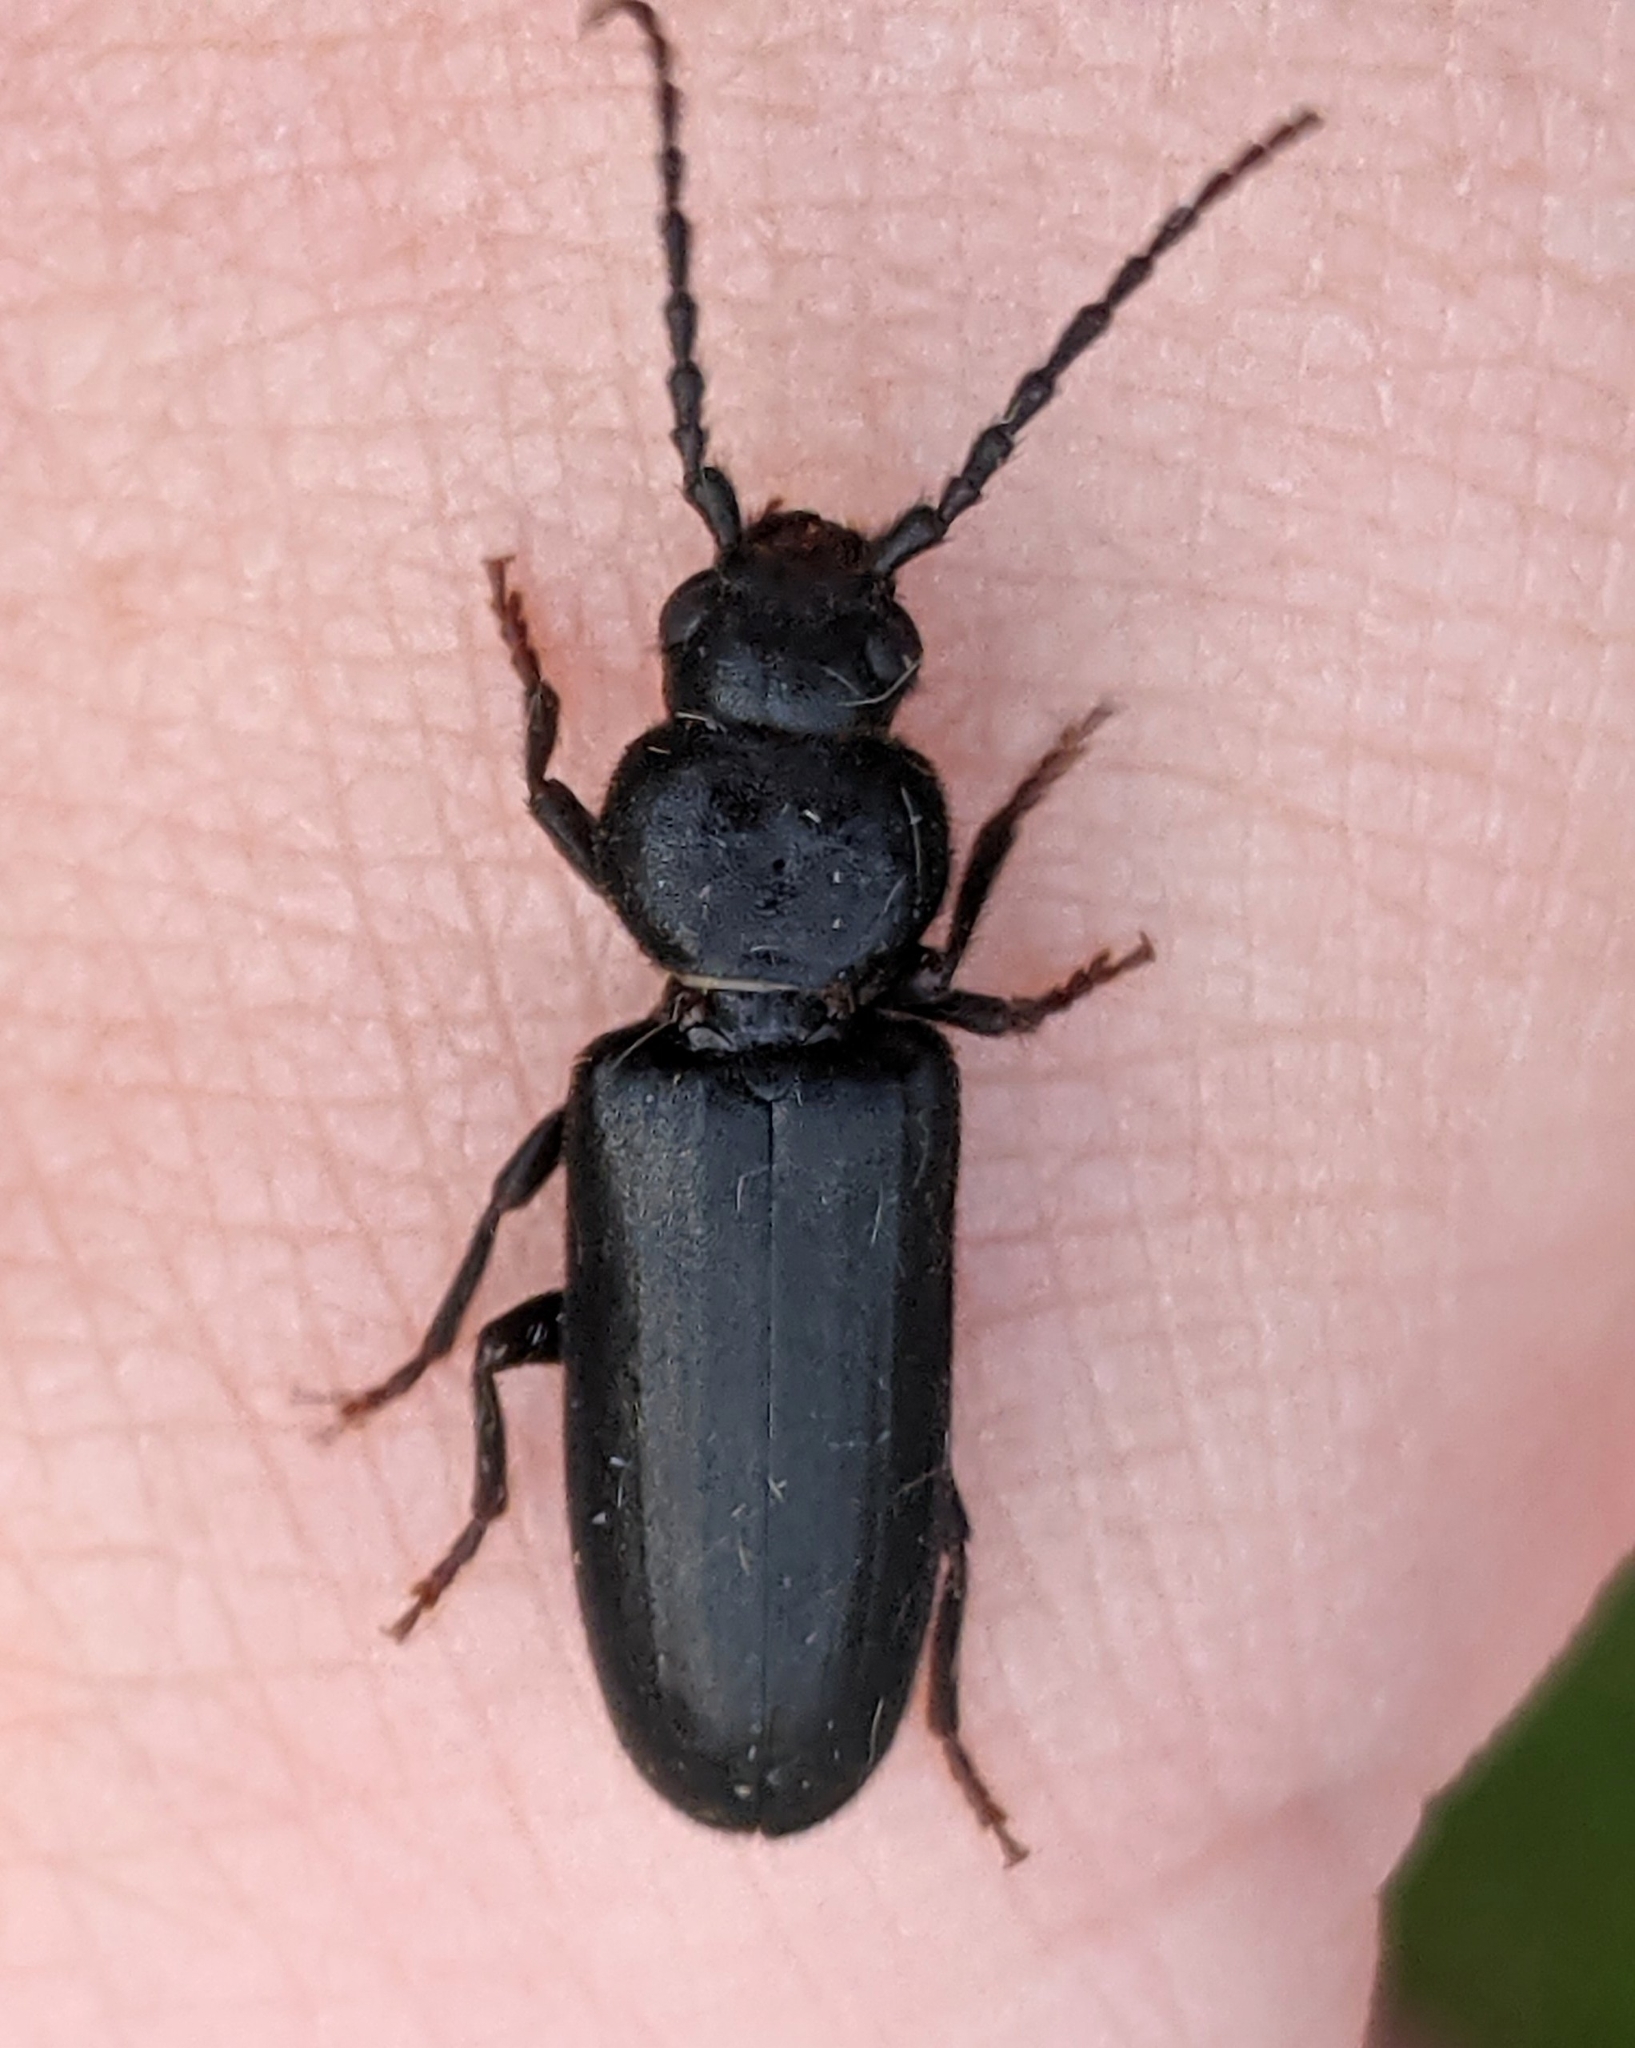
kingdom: Animalia
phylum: Arthropoda
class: Insecta
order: Coleoptera
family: Cerambycidae
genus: Asemum
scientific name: Asemum nitidum
